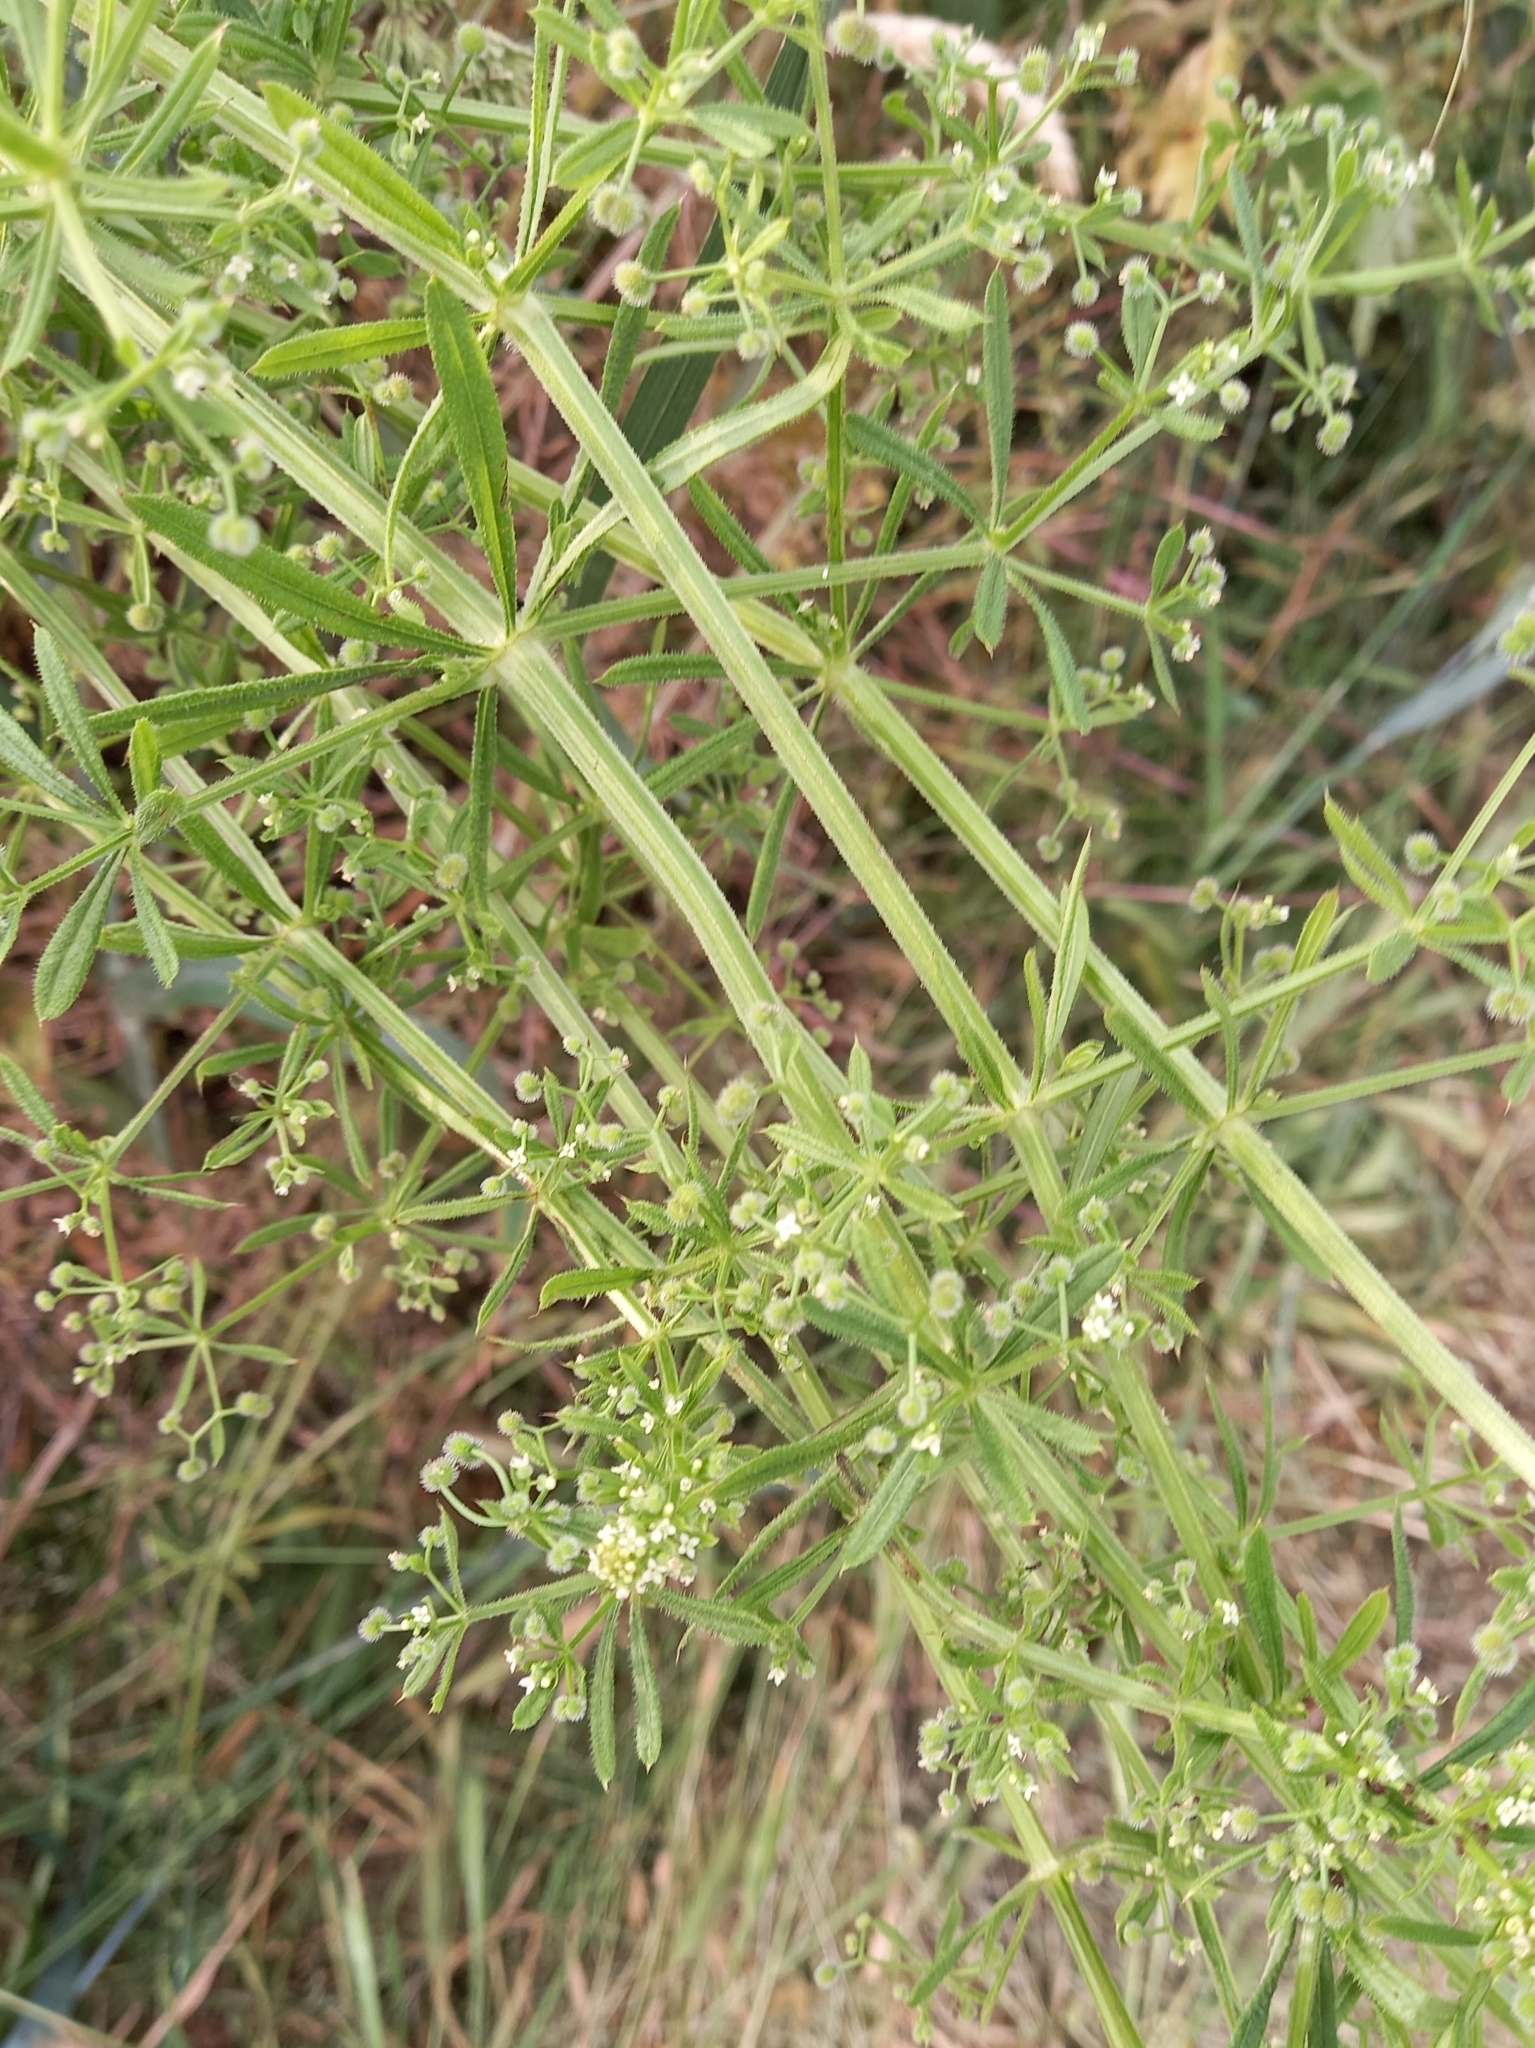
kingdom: Plantae
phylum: Tracheophyta
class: Magnoliopsida
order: Gentianales
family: Rubiaceae
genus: Galium
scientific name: Galium aparine
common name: Cleavers
